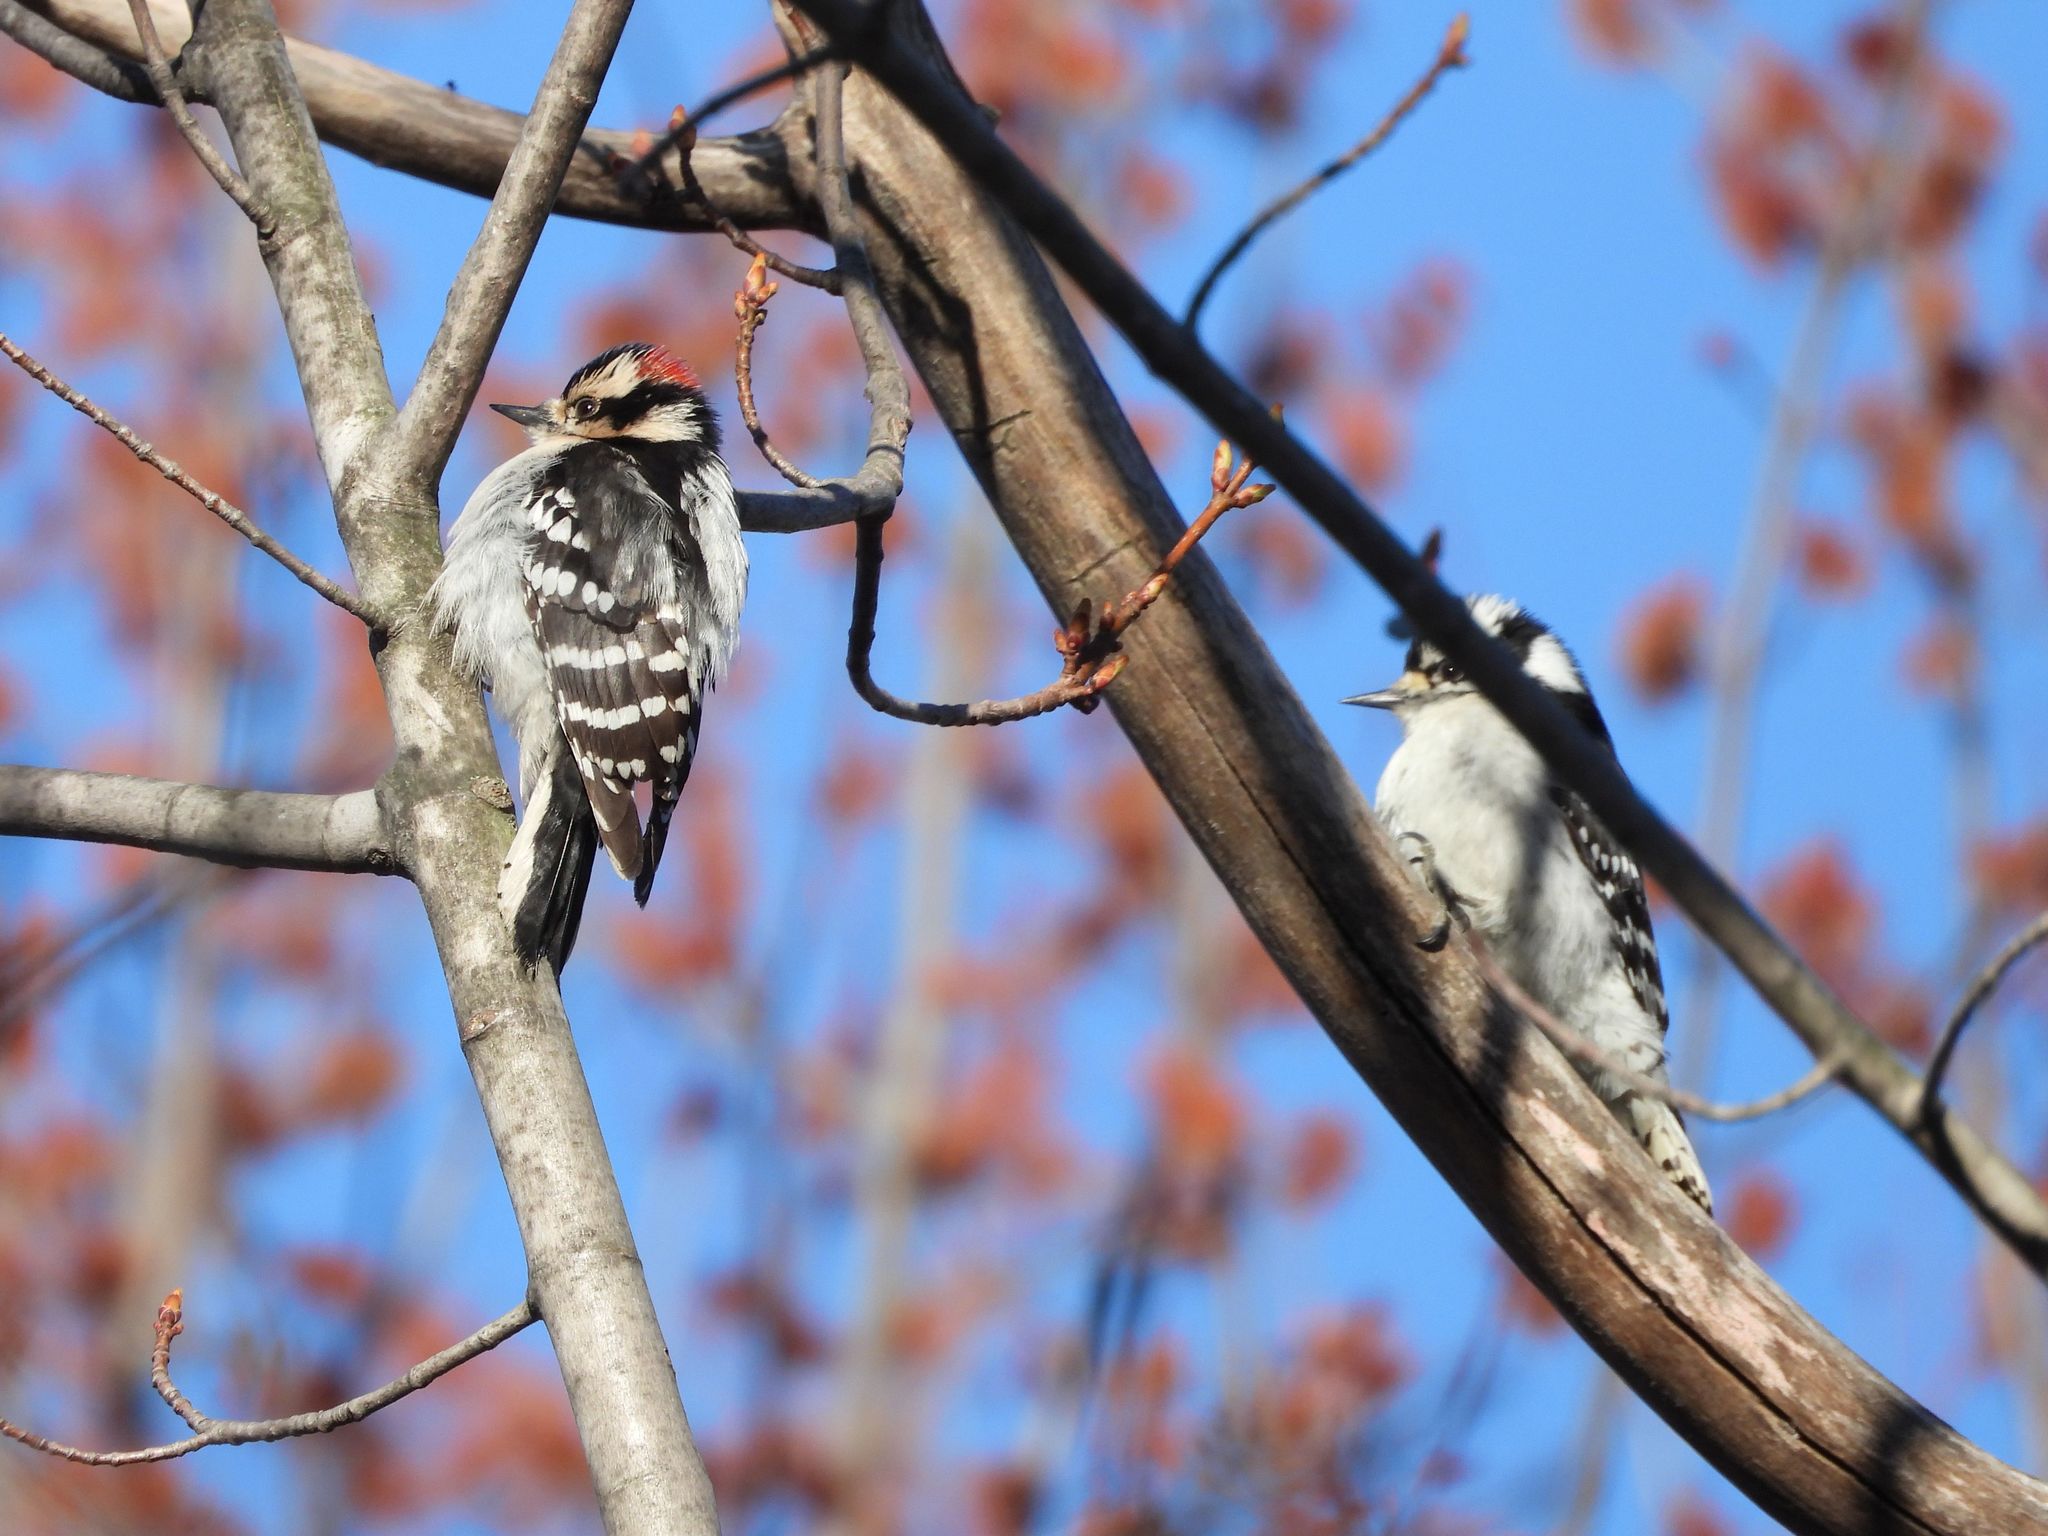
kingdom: Animalia
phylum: Chordata
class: Aves
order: Piciformes
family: Picidae
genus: Dryobates
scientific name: Dryobates pubescens
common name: Downy woodpecker
